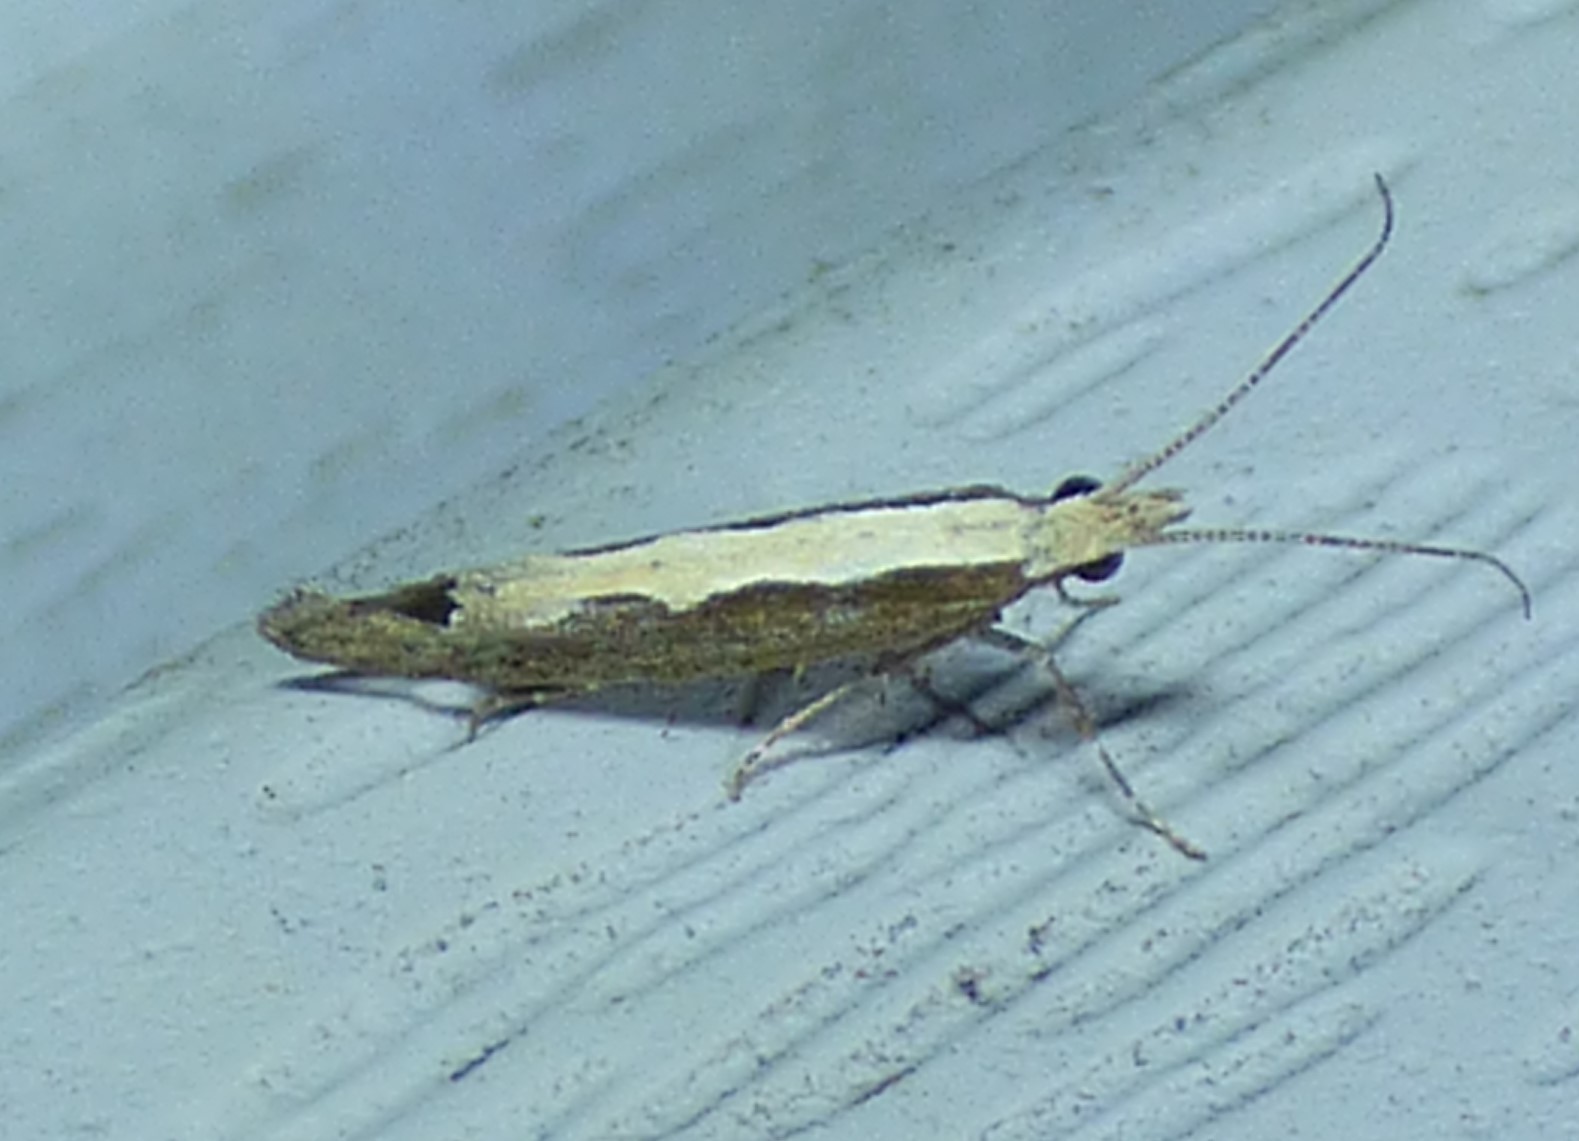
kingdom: Animalia
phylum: Arthropoda
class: Insecta
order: Lepidoptera
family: Plutellidae
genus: Plutella
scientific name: Plutella xylostella
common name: Diamond-back moth
